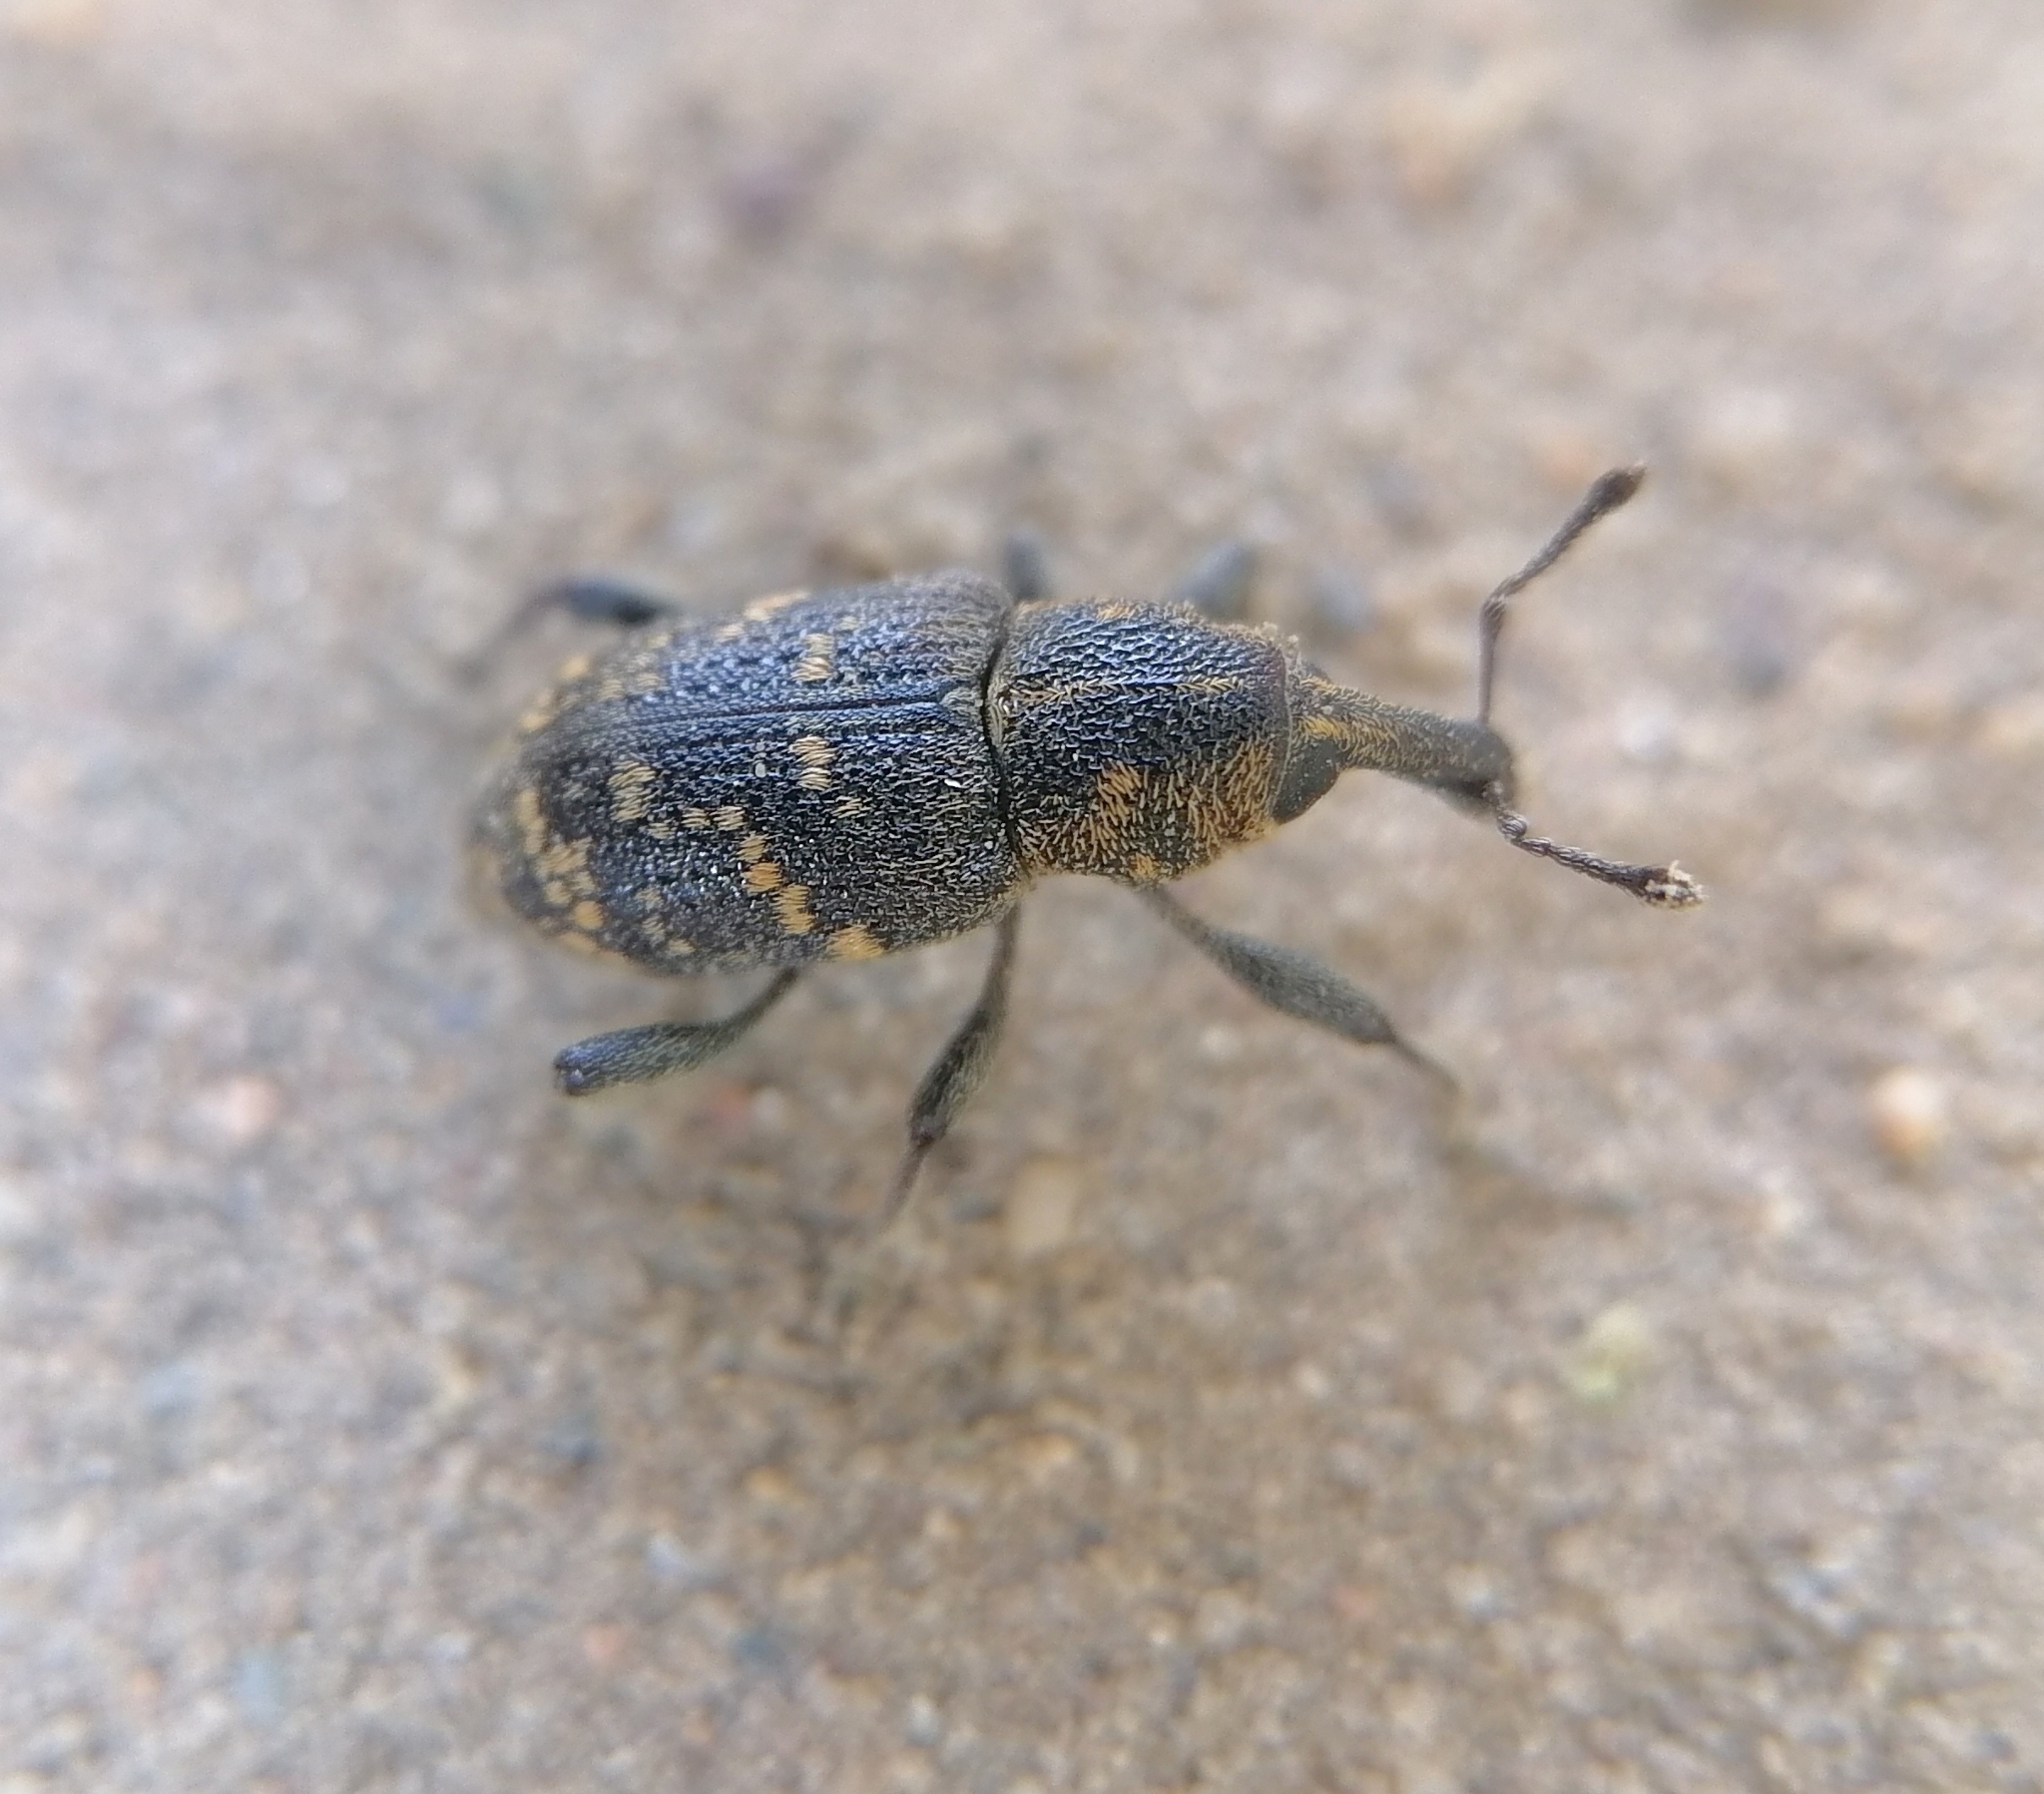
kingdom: Animalia
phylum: Arthropoda
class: Insecta
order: Coleoptera
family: Curculionidae
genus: Hylobius
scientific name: Hylobius abietis
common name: Large pine weevil
